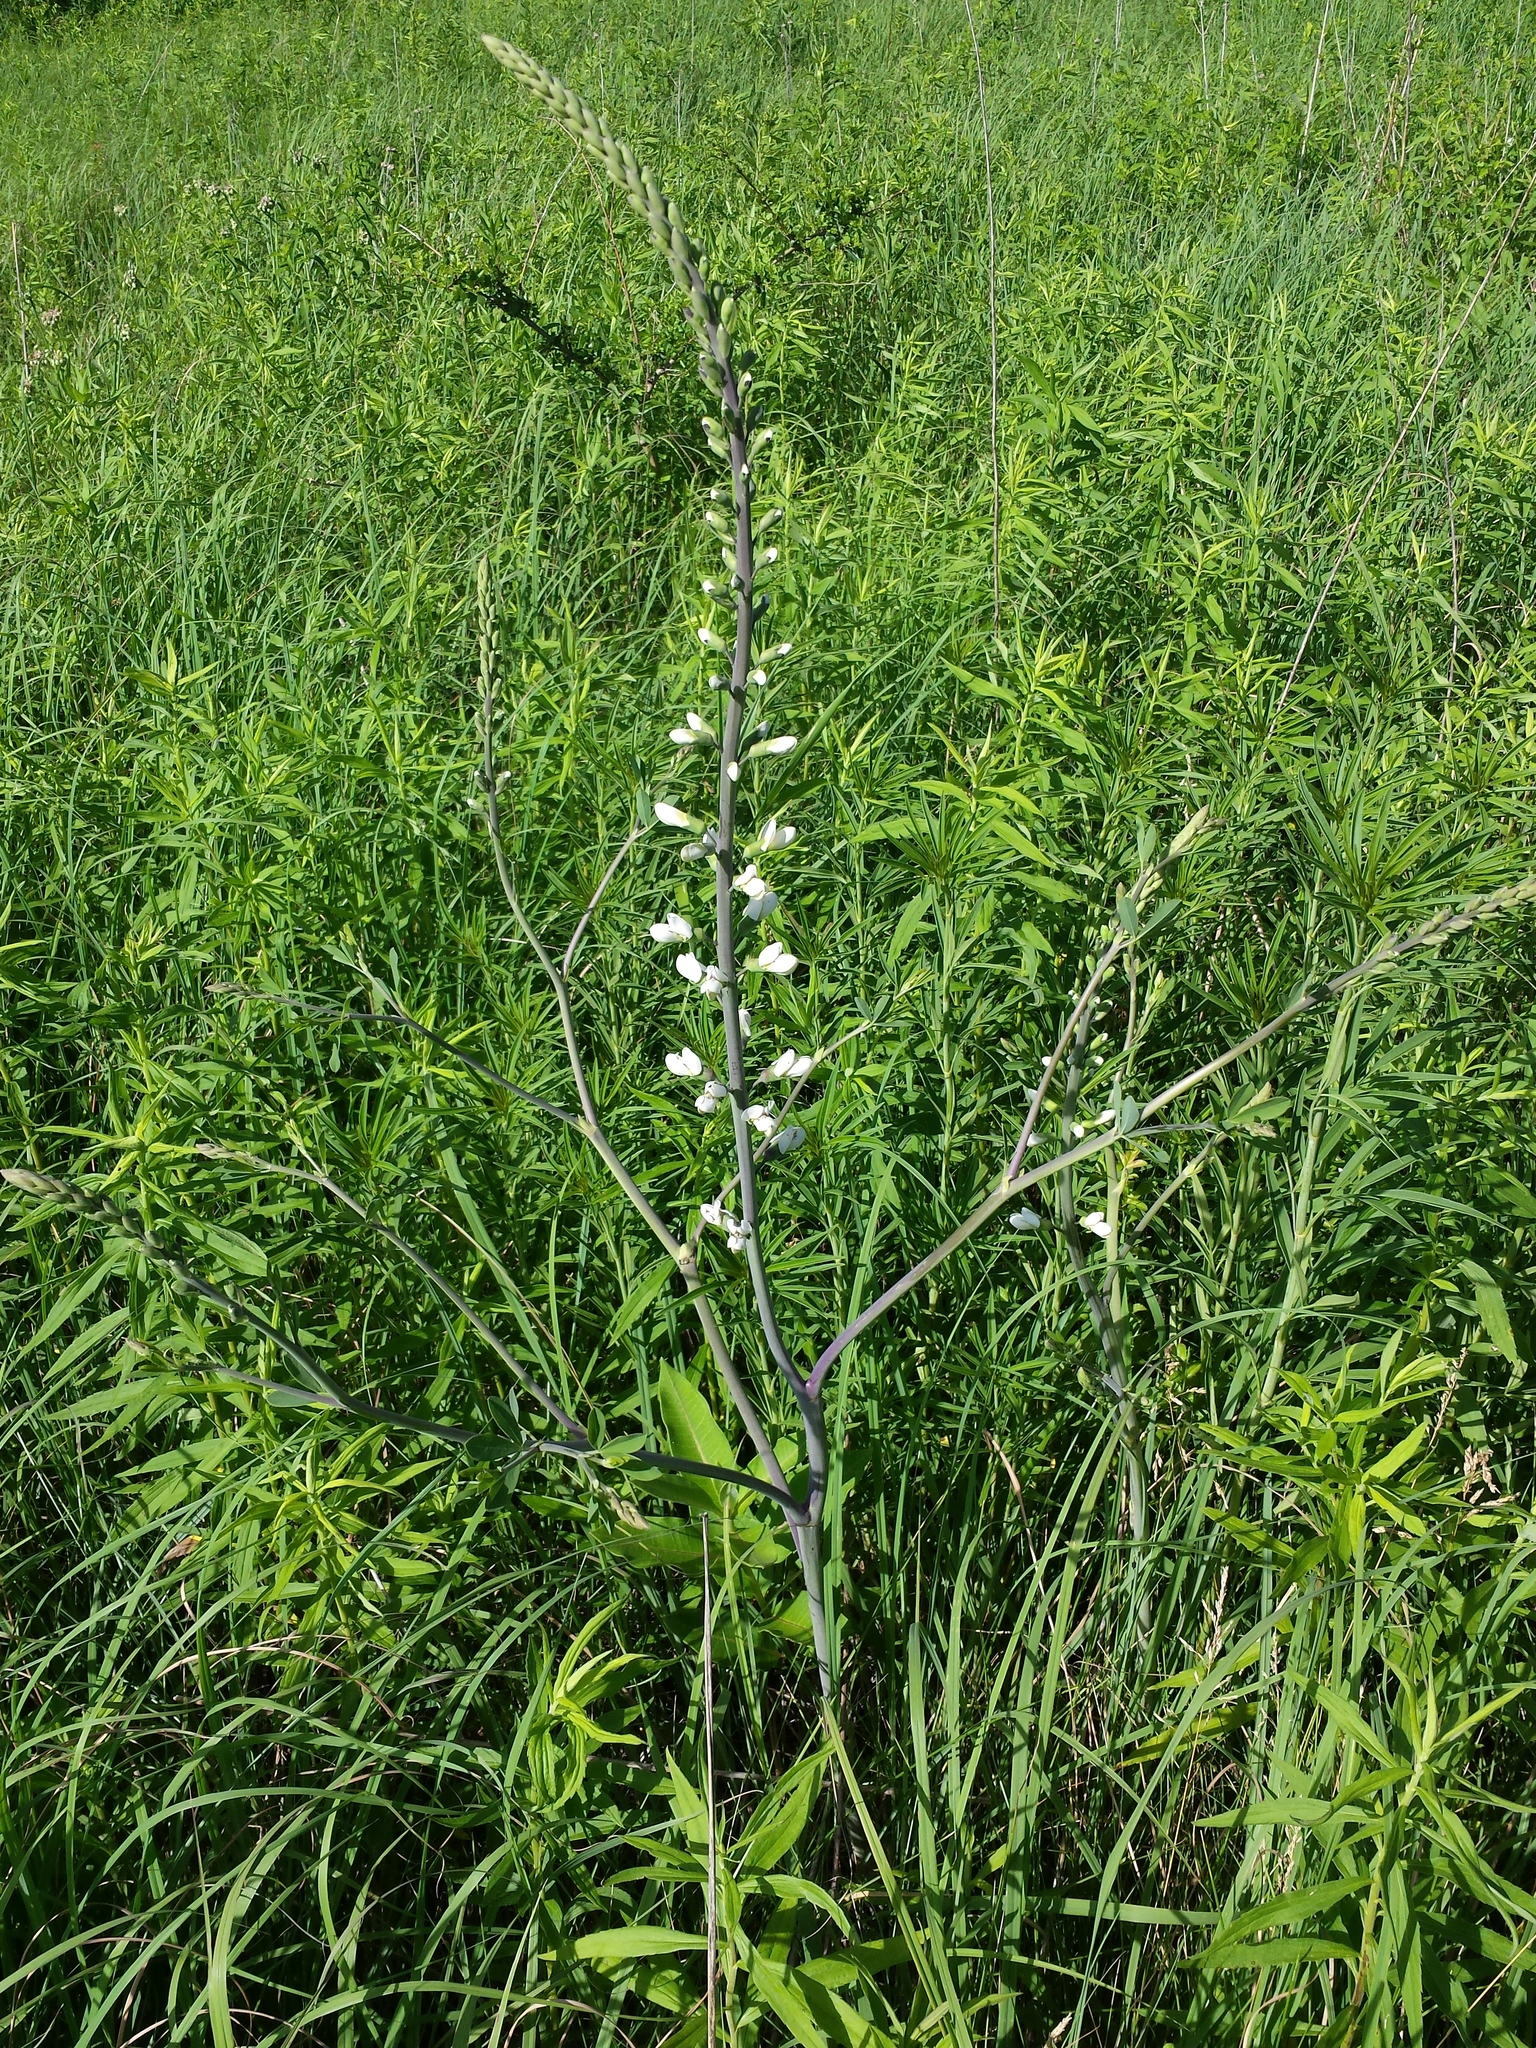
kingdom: Plantae
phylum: Tracheophyta
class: Magnoliopsida
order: Fabales
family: Fabaceae
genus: Baptisia
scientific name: Baptisia alba
